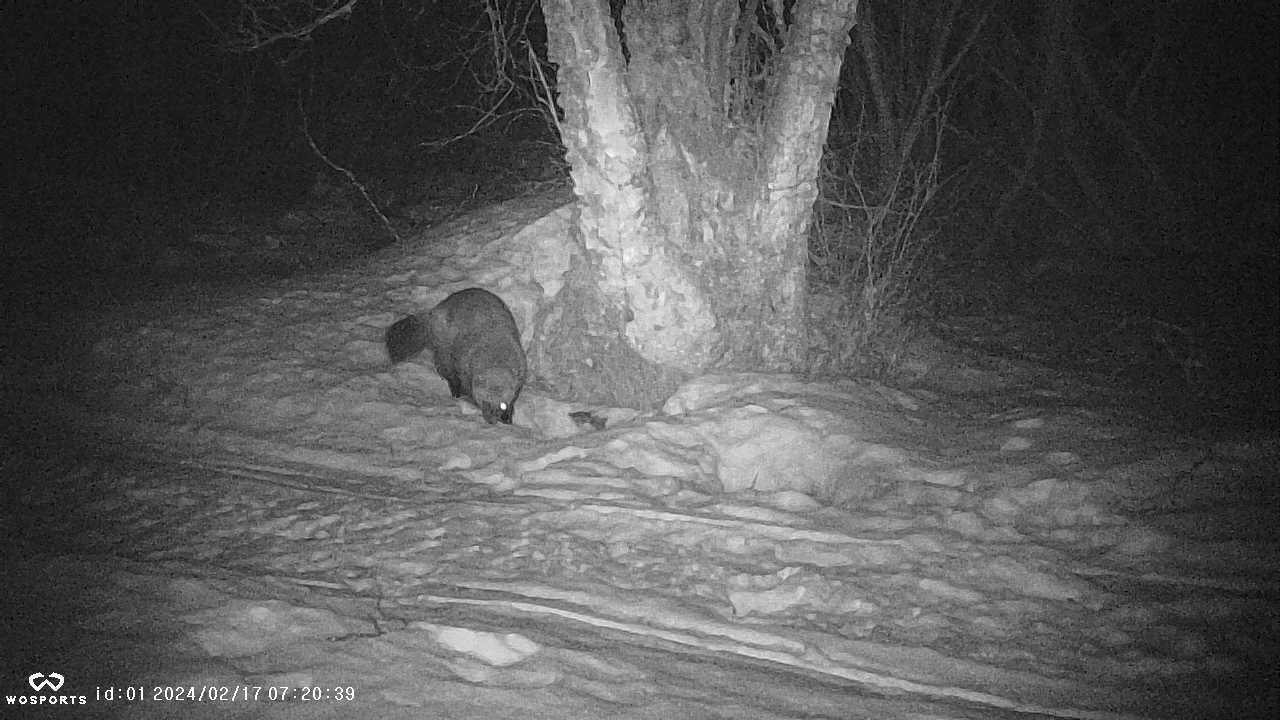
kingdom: Animalia
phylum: Chordata
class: Mammalia
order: Carnivora
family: Mustelidae
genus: Gulo
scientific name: Gulo gulo
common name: Wolverine
